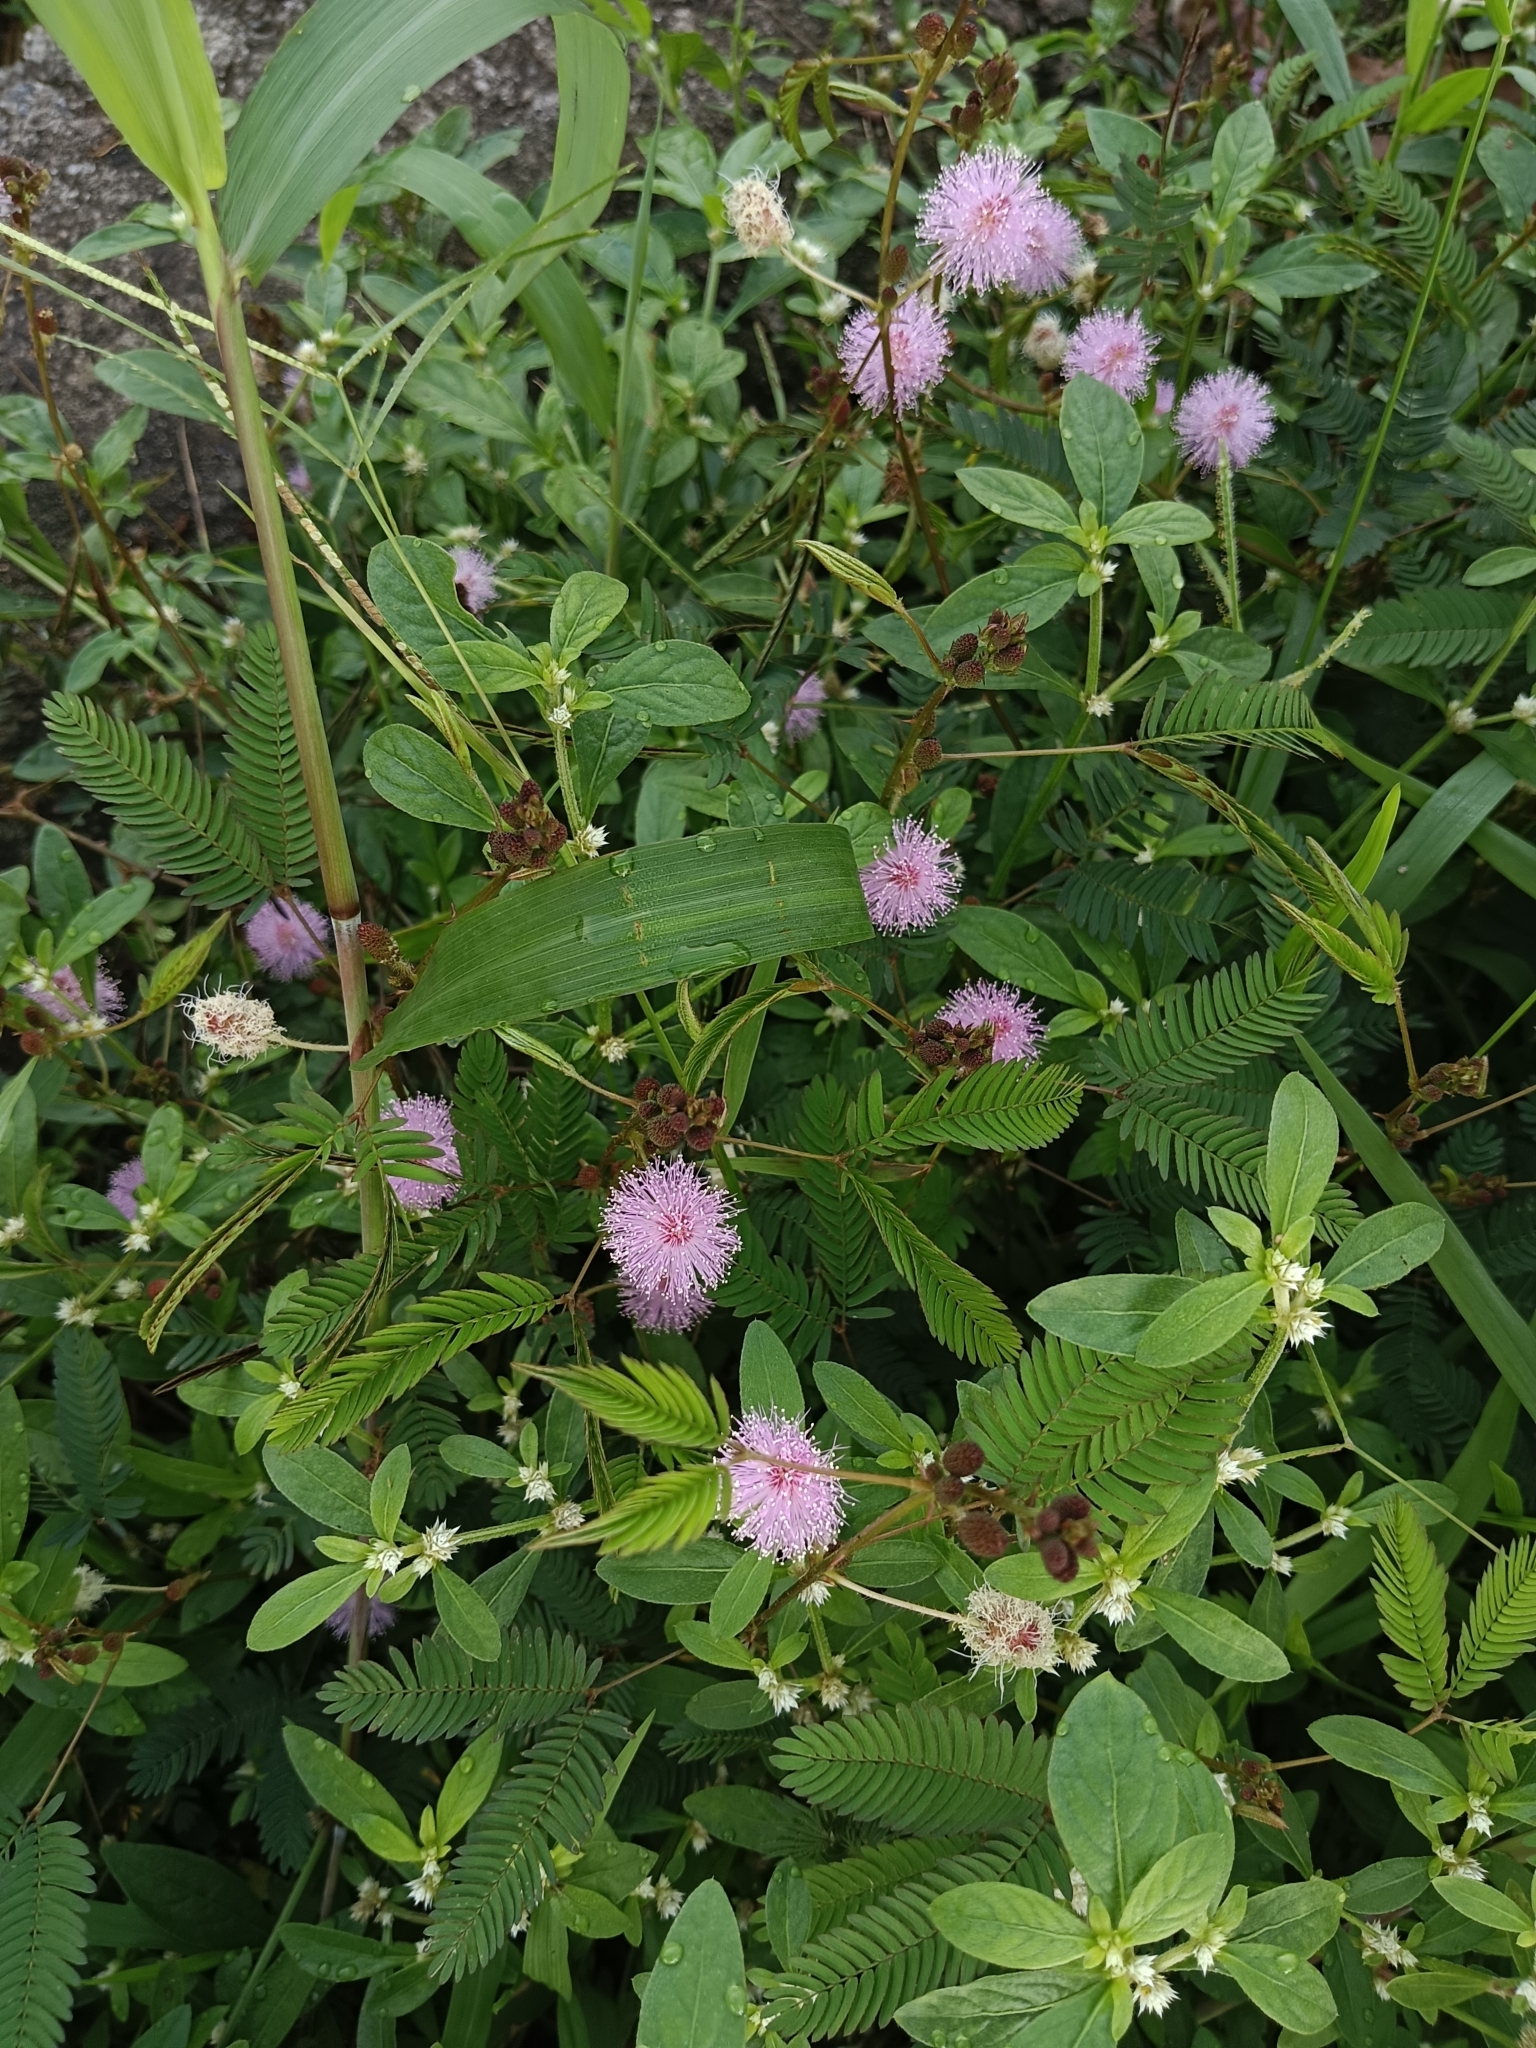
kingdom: Plantae
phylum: Tracheophyta
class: Magnoliopsida
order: Fabales
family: Fabaceae
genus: Mimosa
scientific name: Mimosa pudica
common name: Sensitive plant
